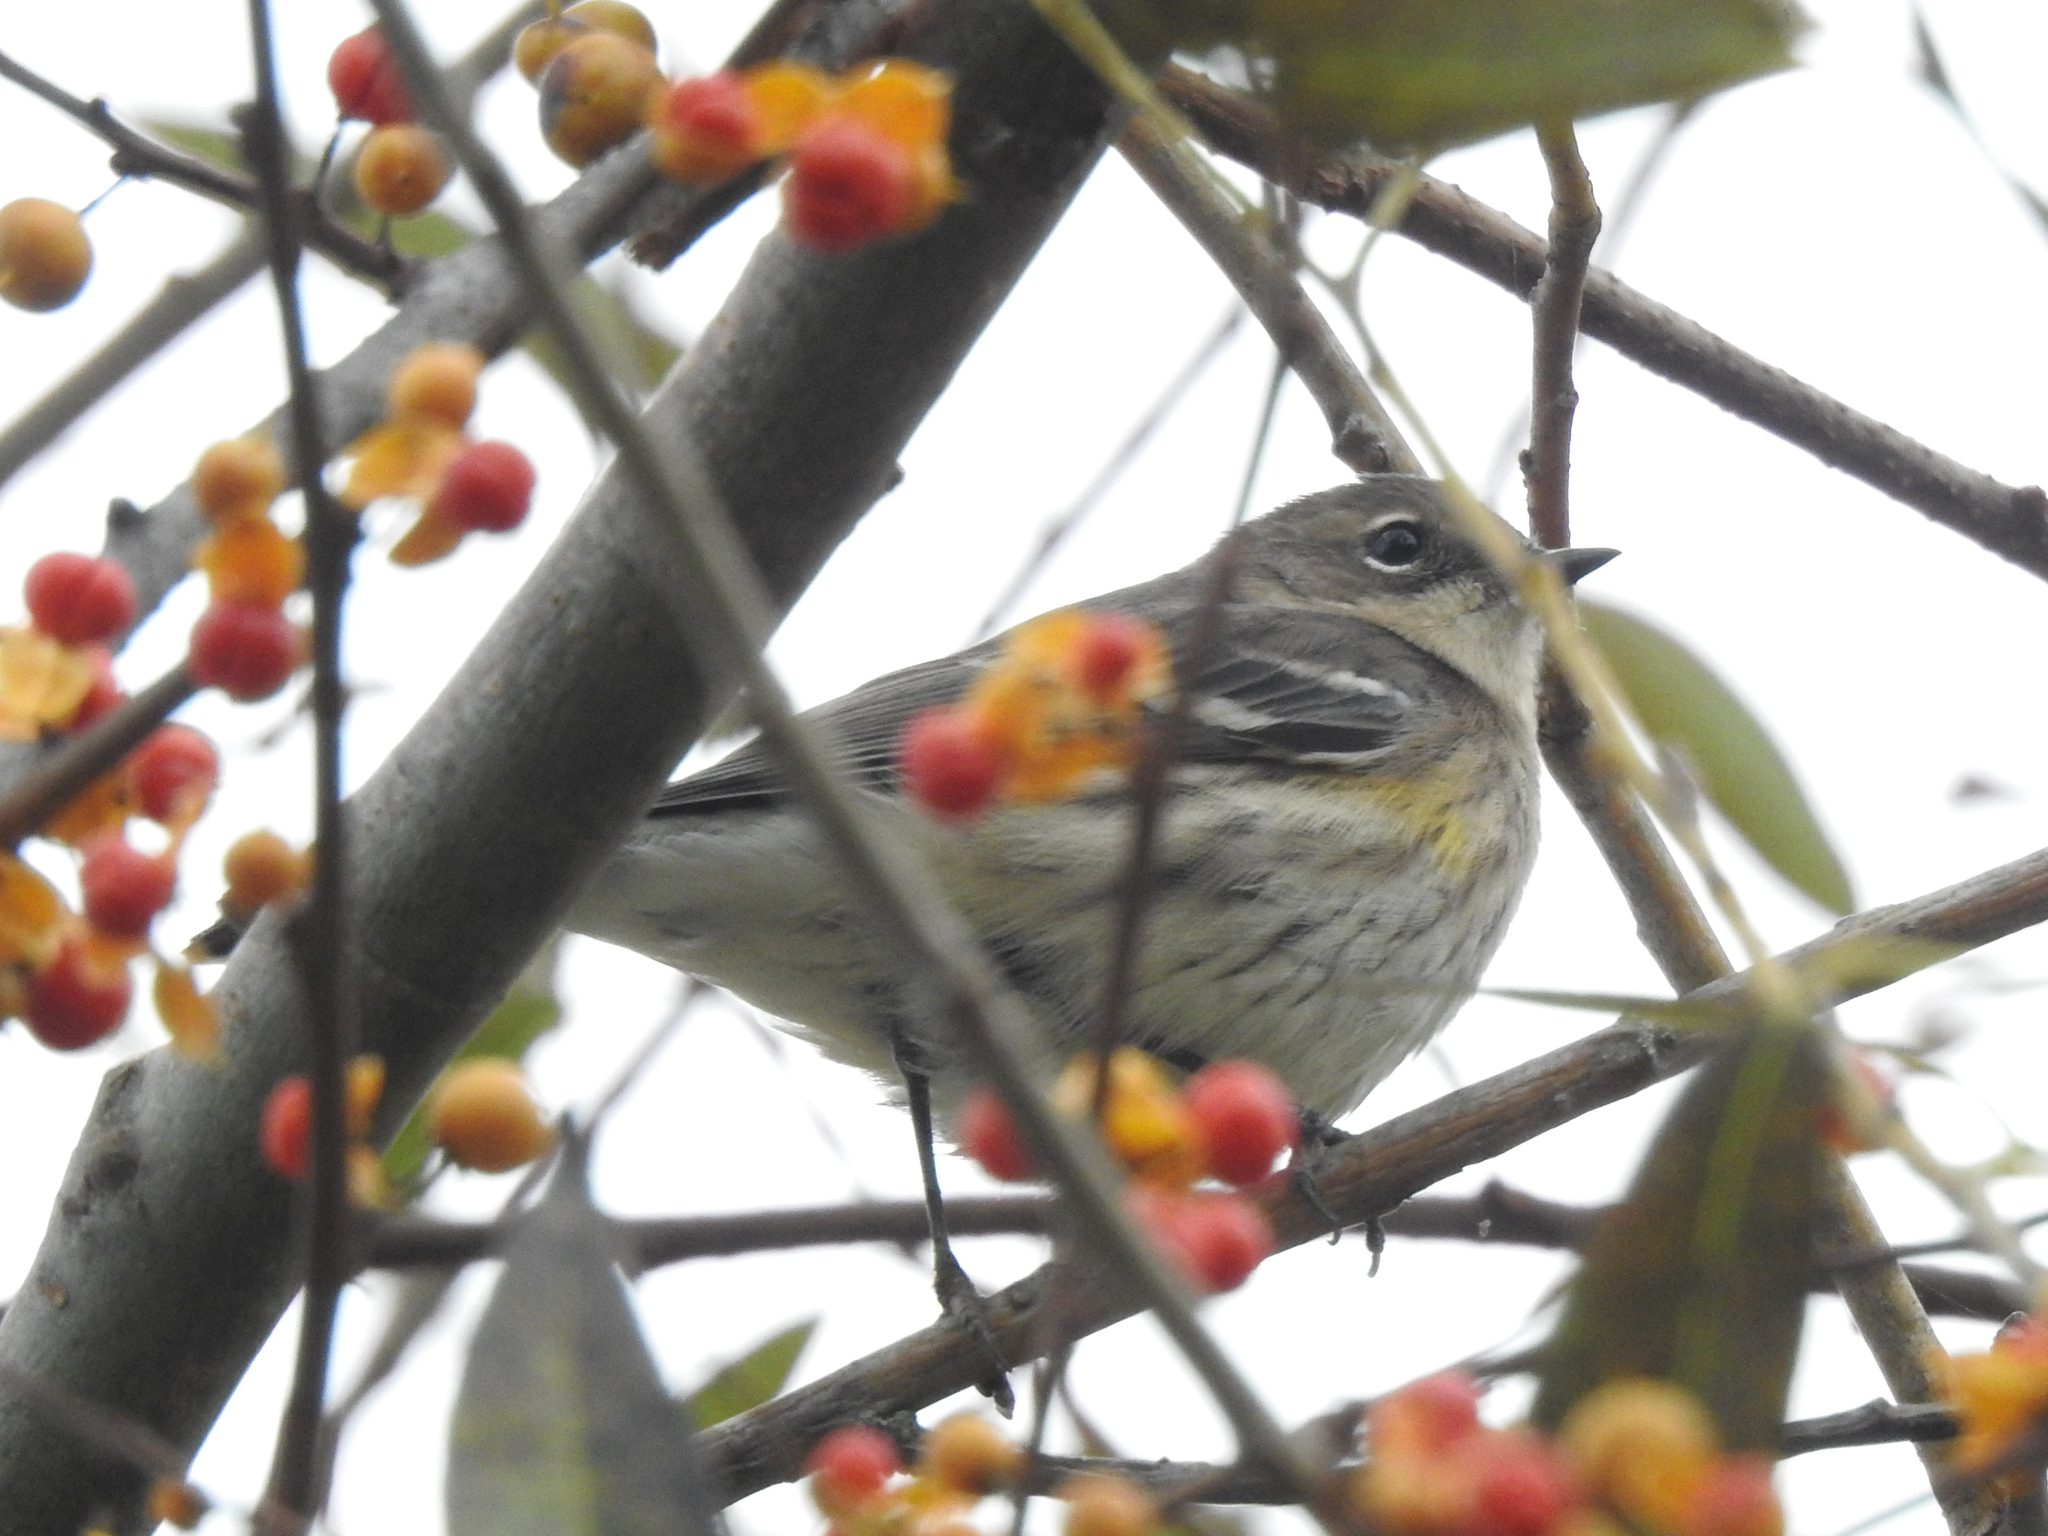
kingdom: Animalia
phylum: Chordata
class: Aves
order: Passeriformes
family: Parulidae
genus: Setophaga
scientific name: Setophaga coronata
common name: Myrtle warbler
